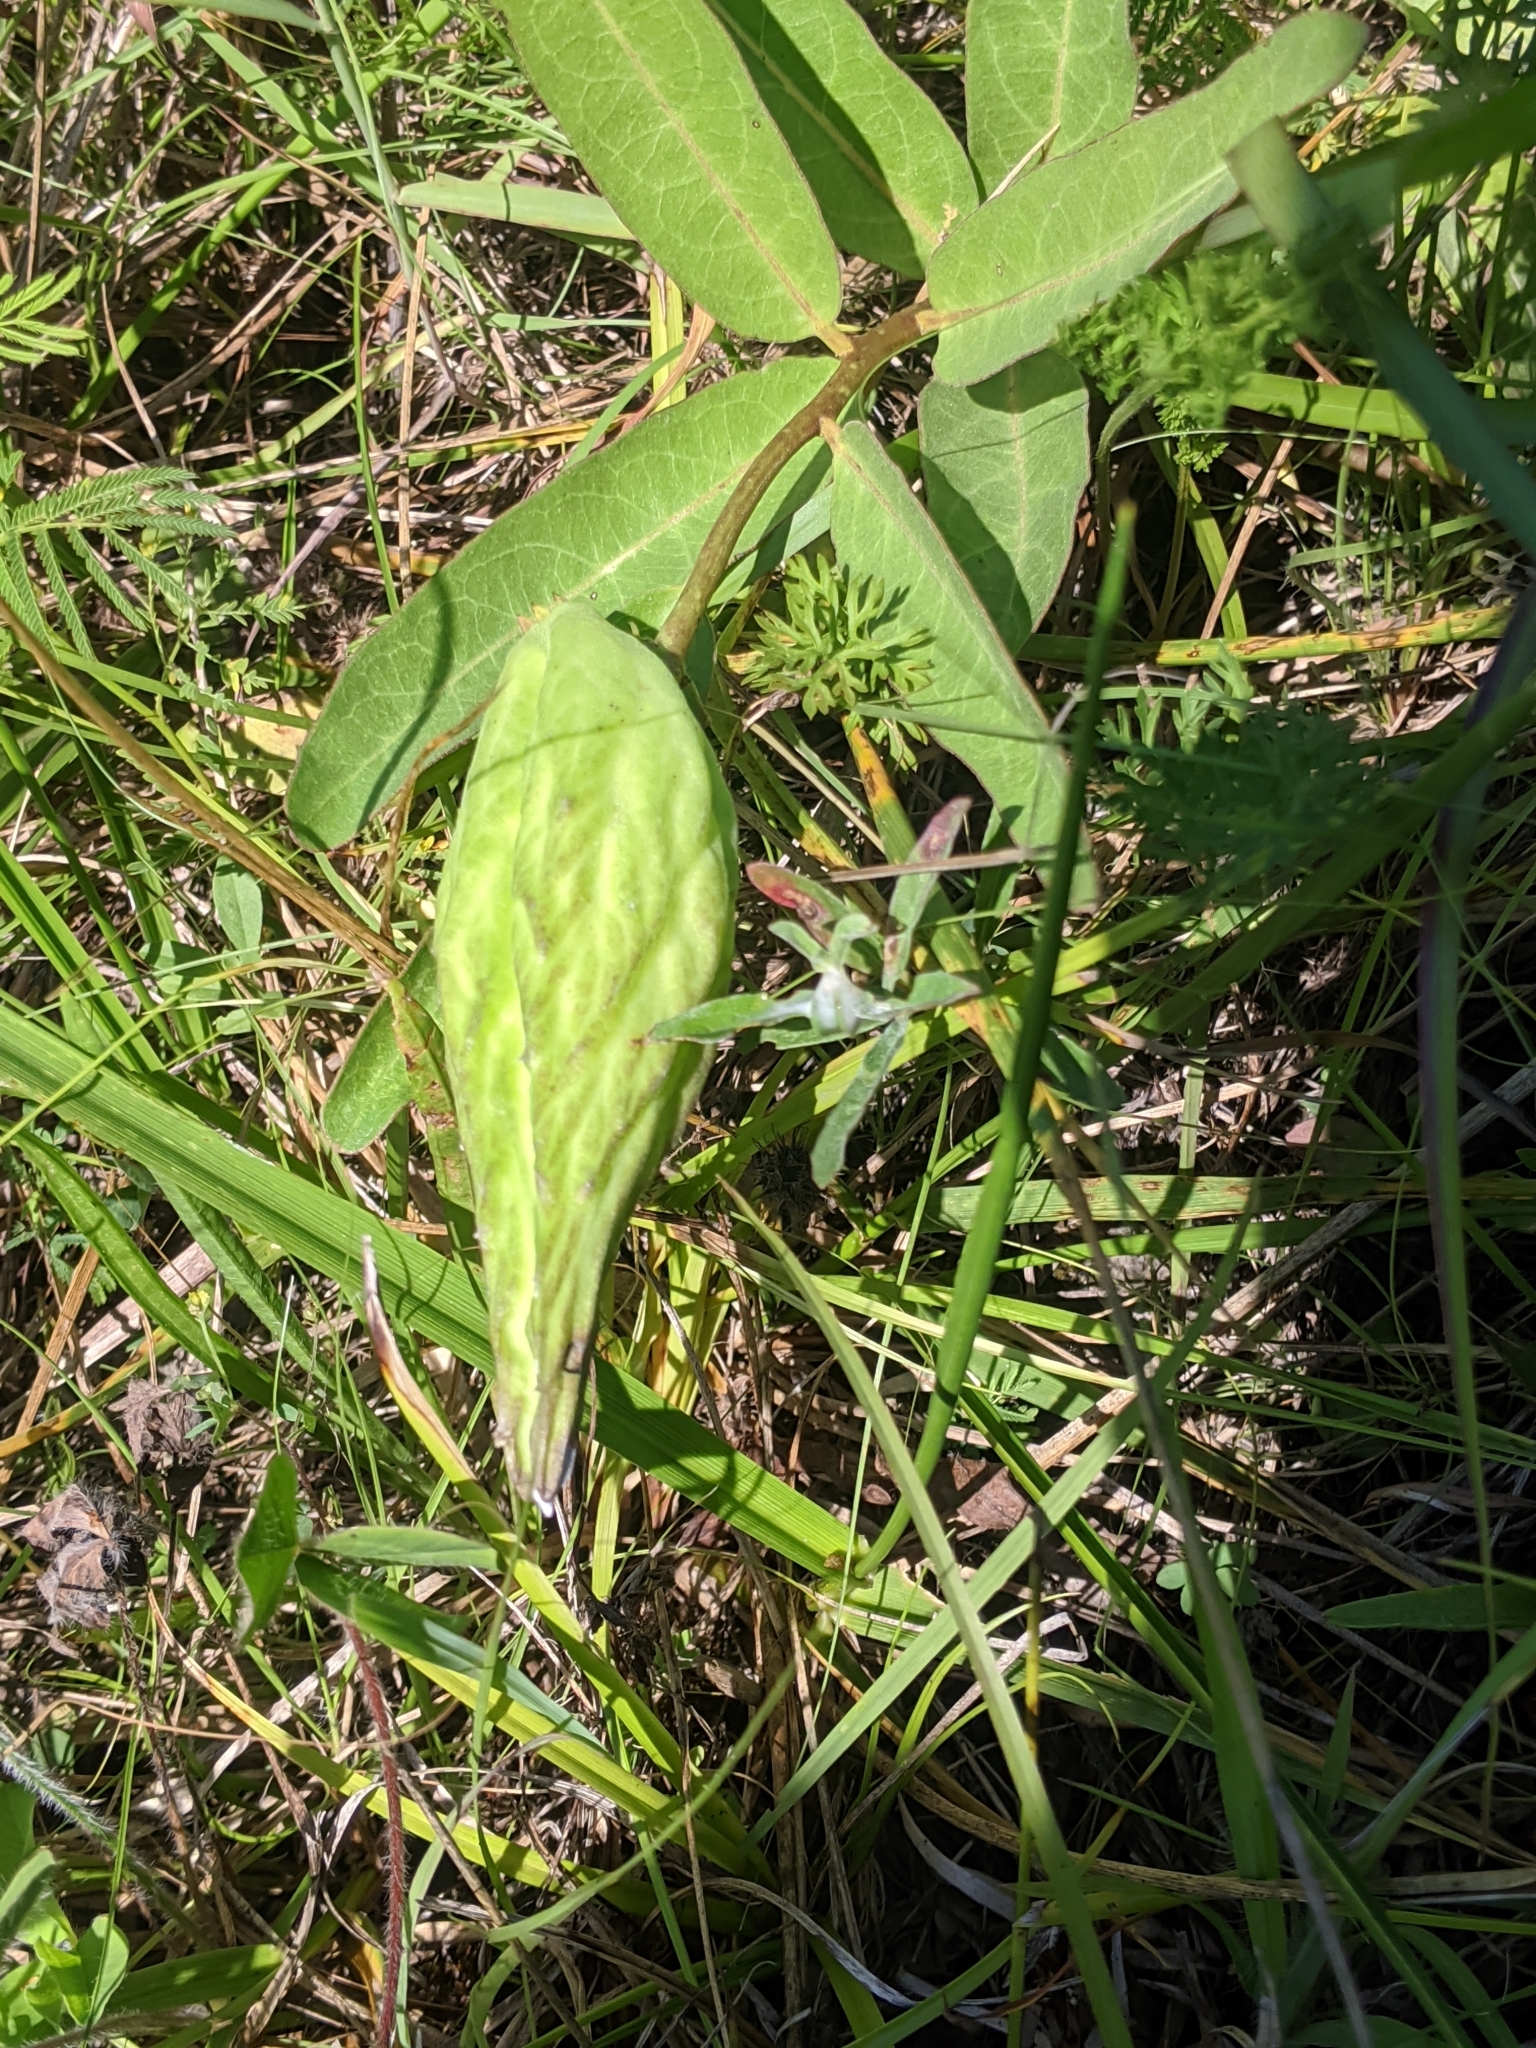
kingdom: Plantae
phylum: Tracheophyta
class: Magnoliopsida
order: Gentianales
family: Apocynaceae
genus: Asclepias
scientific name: Asclepias viridis
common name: Antelope-horns
